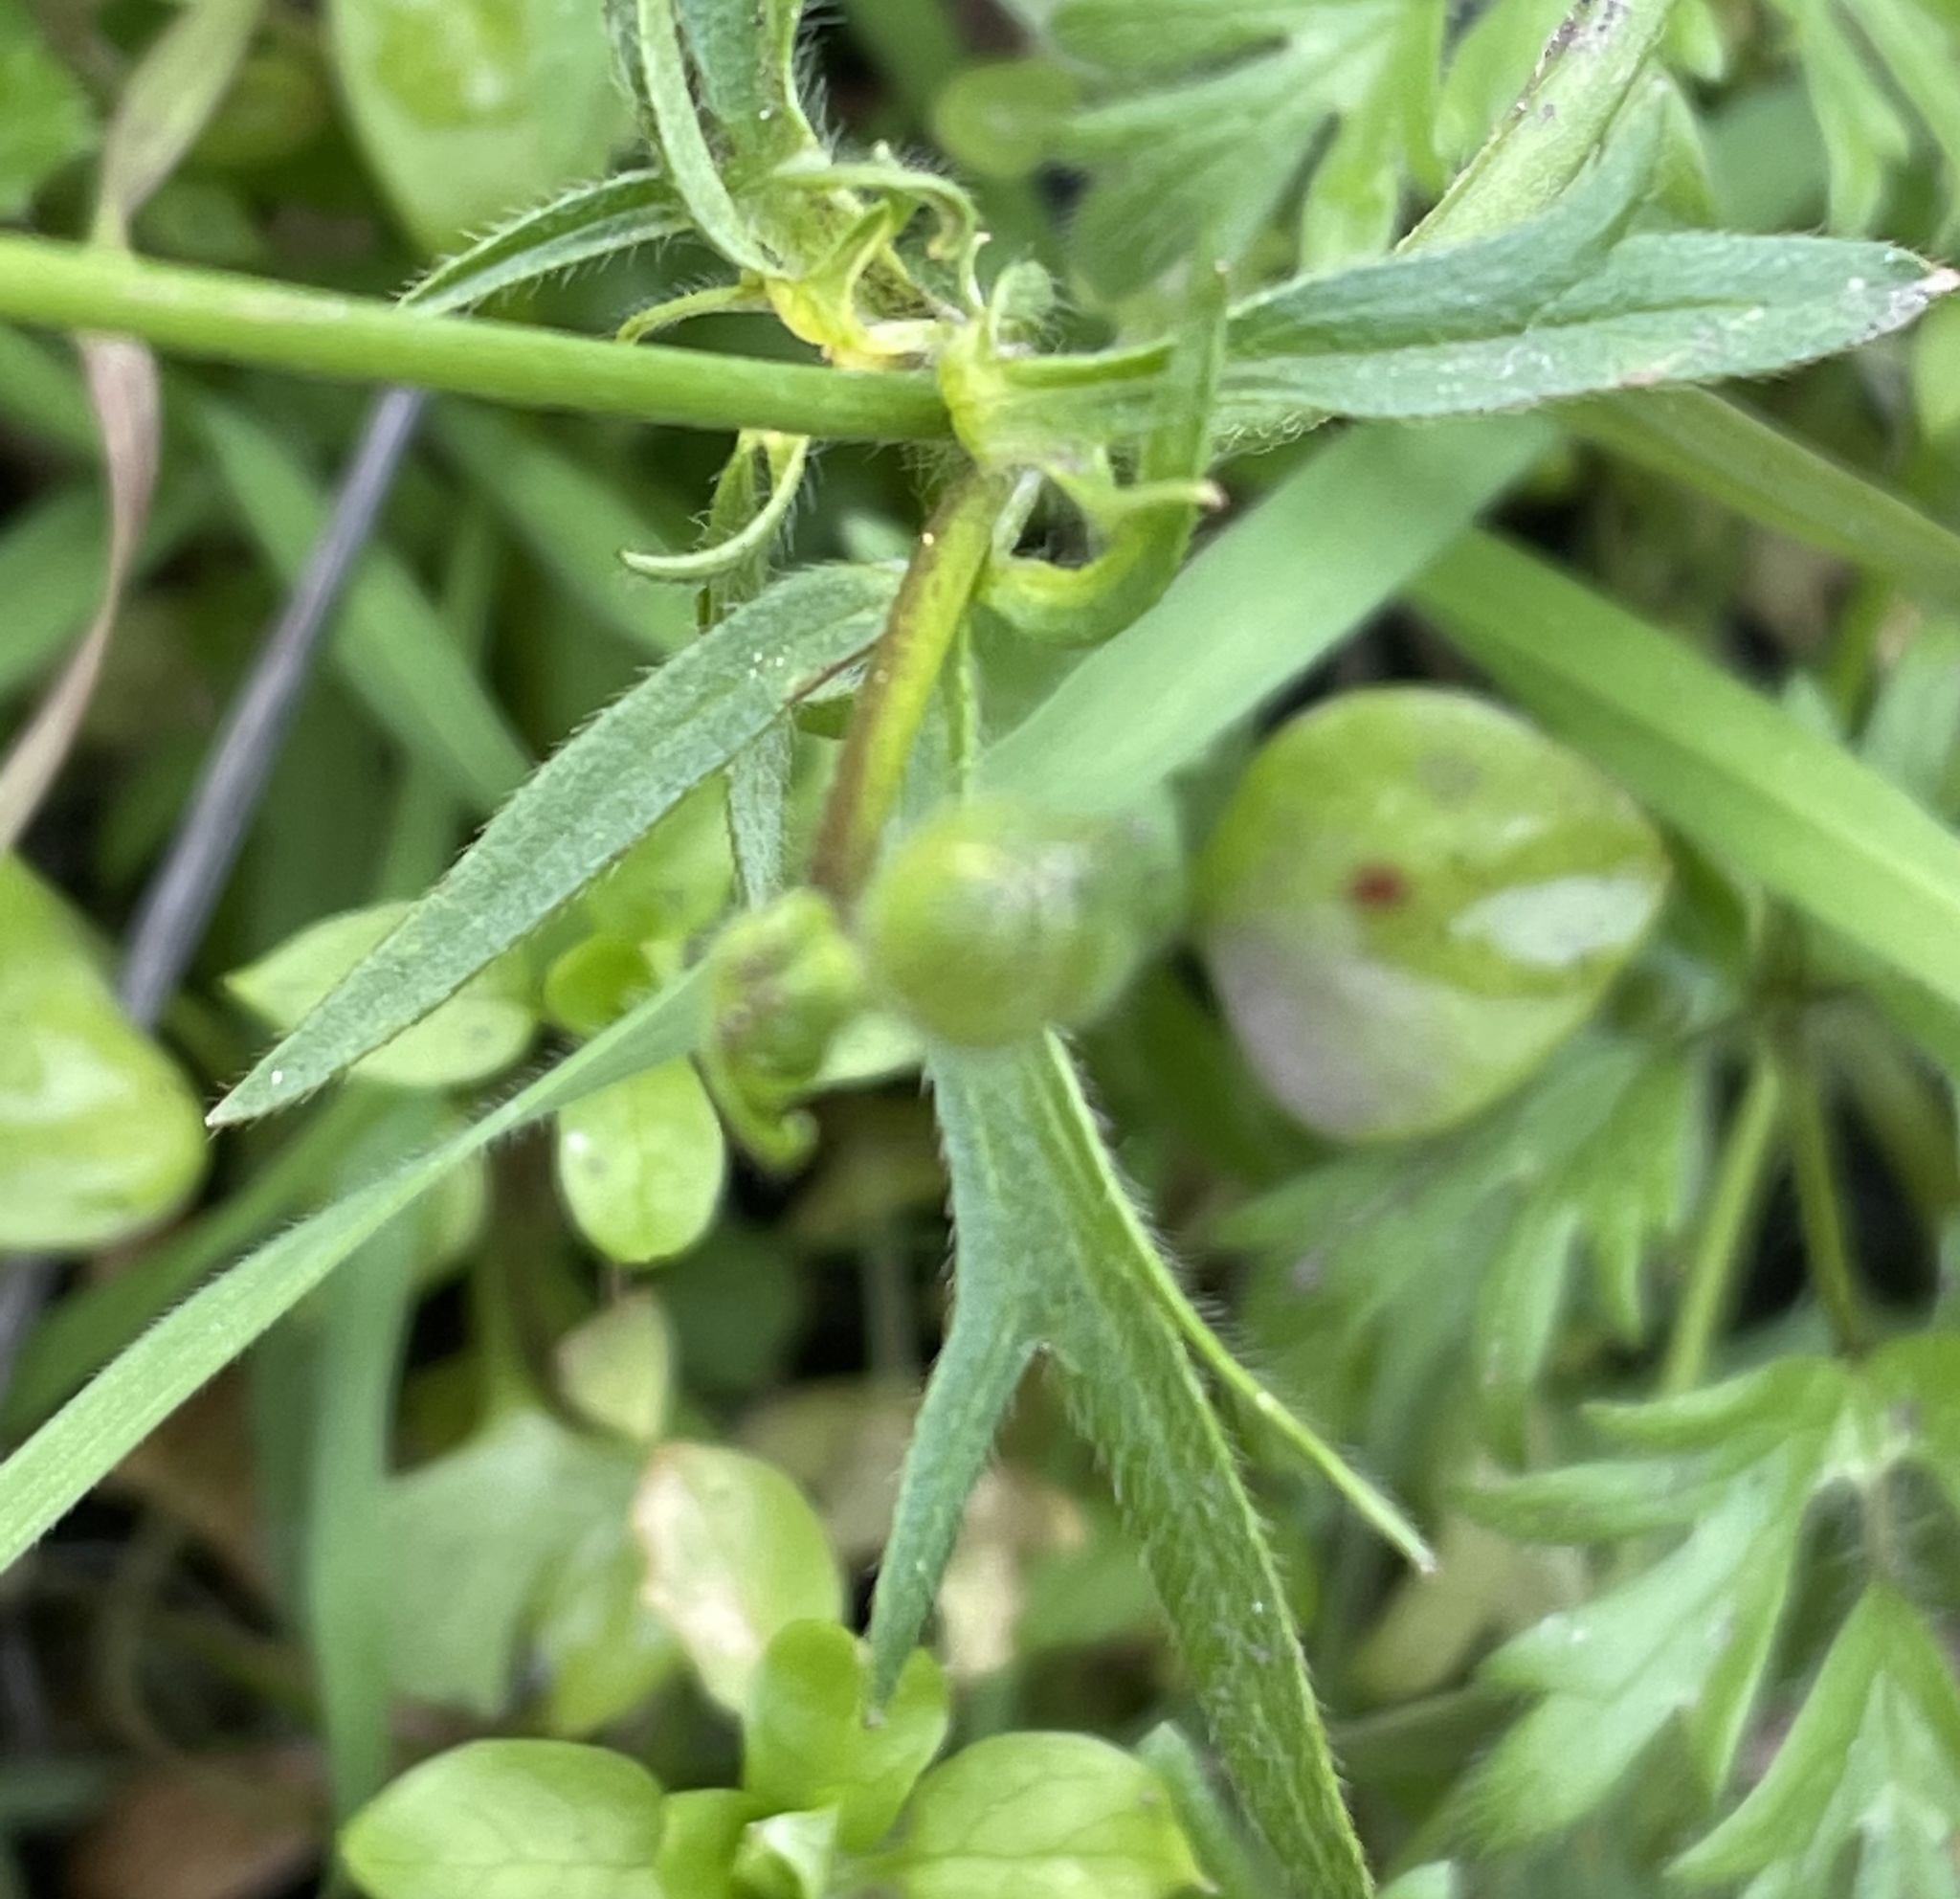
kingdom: Plantae
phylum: Tracheophyta
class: Magnoliopsida
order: Ranunculales
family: Ranunculaceae
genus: Ranunculus
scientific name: Ranunculus californicus
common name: California buttercup
